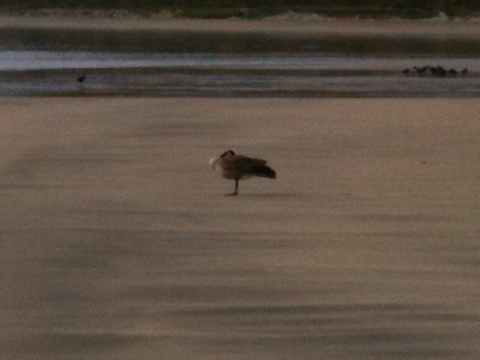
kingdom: Animalia
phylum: Chordata
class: Aves
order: Anseriformes
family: Anatidae
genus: Branta
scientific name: Branta canadensis
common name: Canada goose
